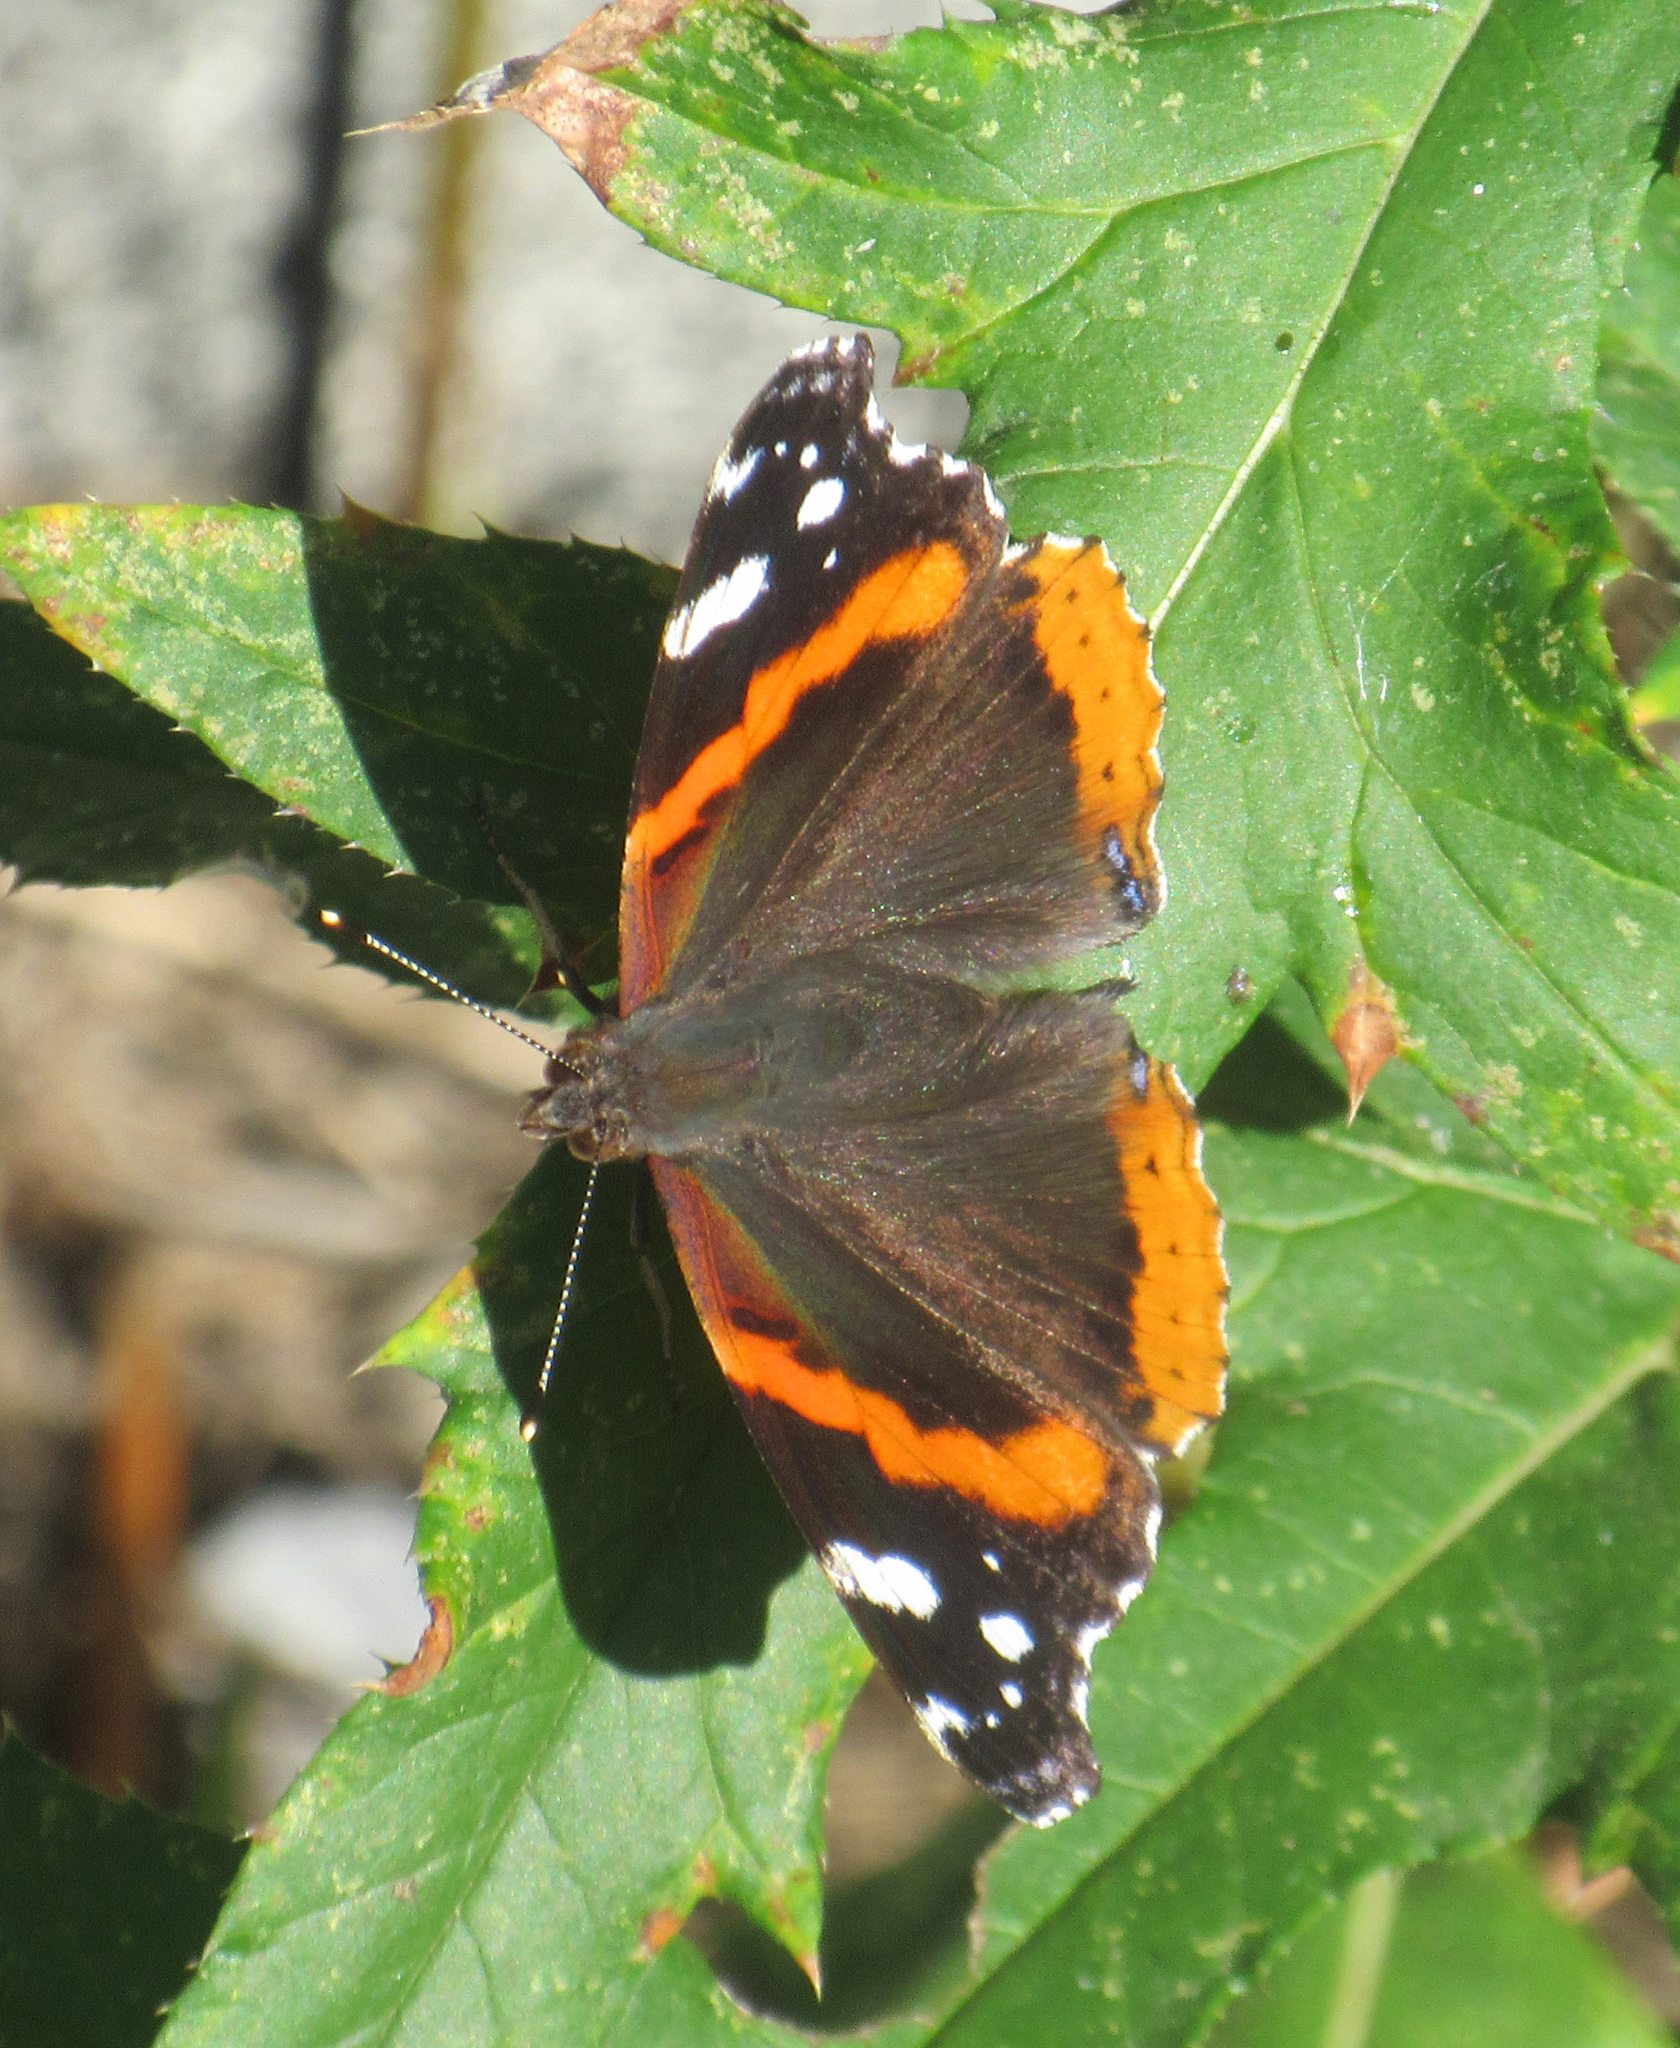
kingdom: Animalia
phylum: Arthropoda
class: Insecta
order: Lepidoptera
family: Nymphalidae
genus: Vanessa
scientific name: Vanessa atalanta
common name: Red admiral
